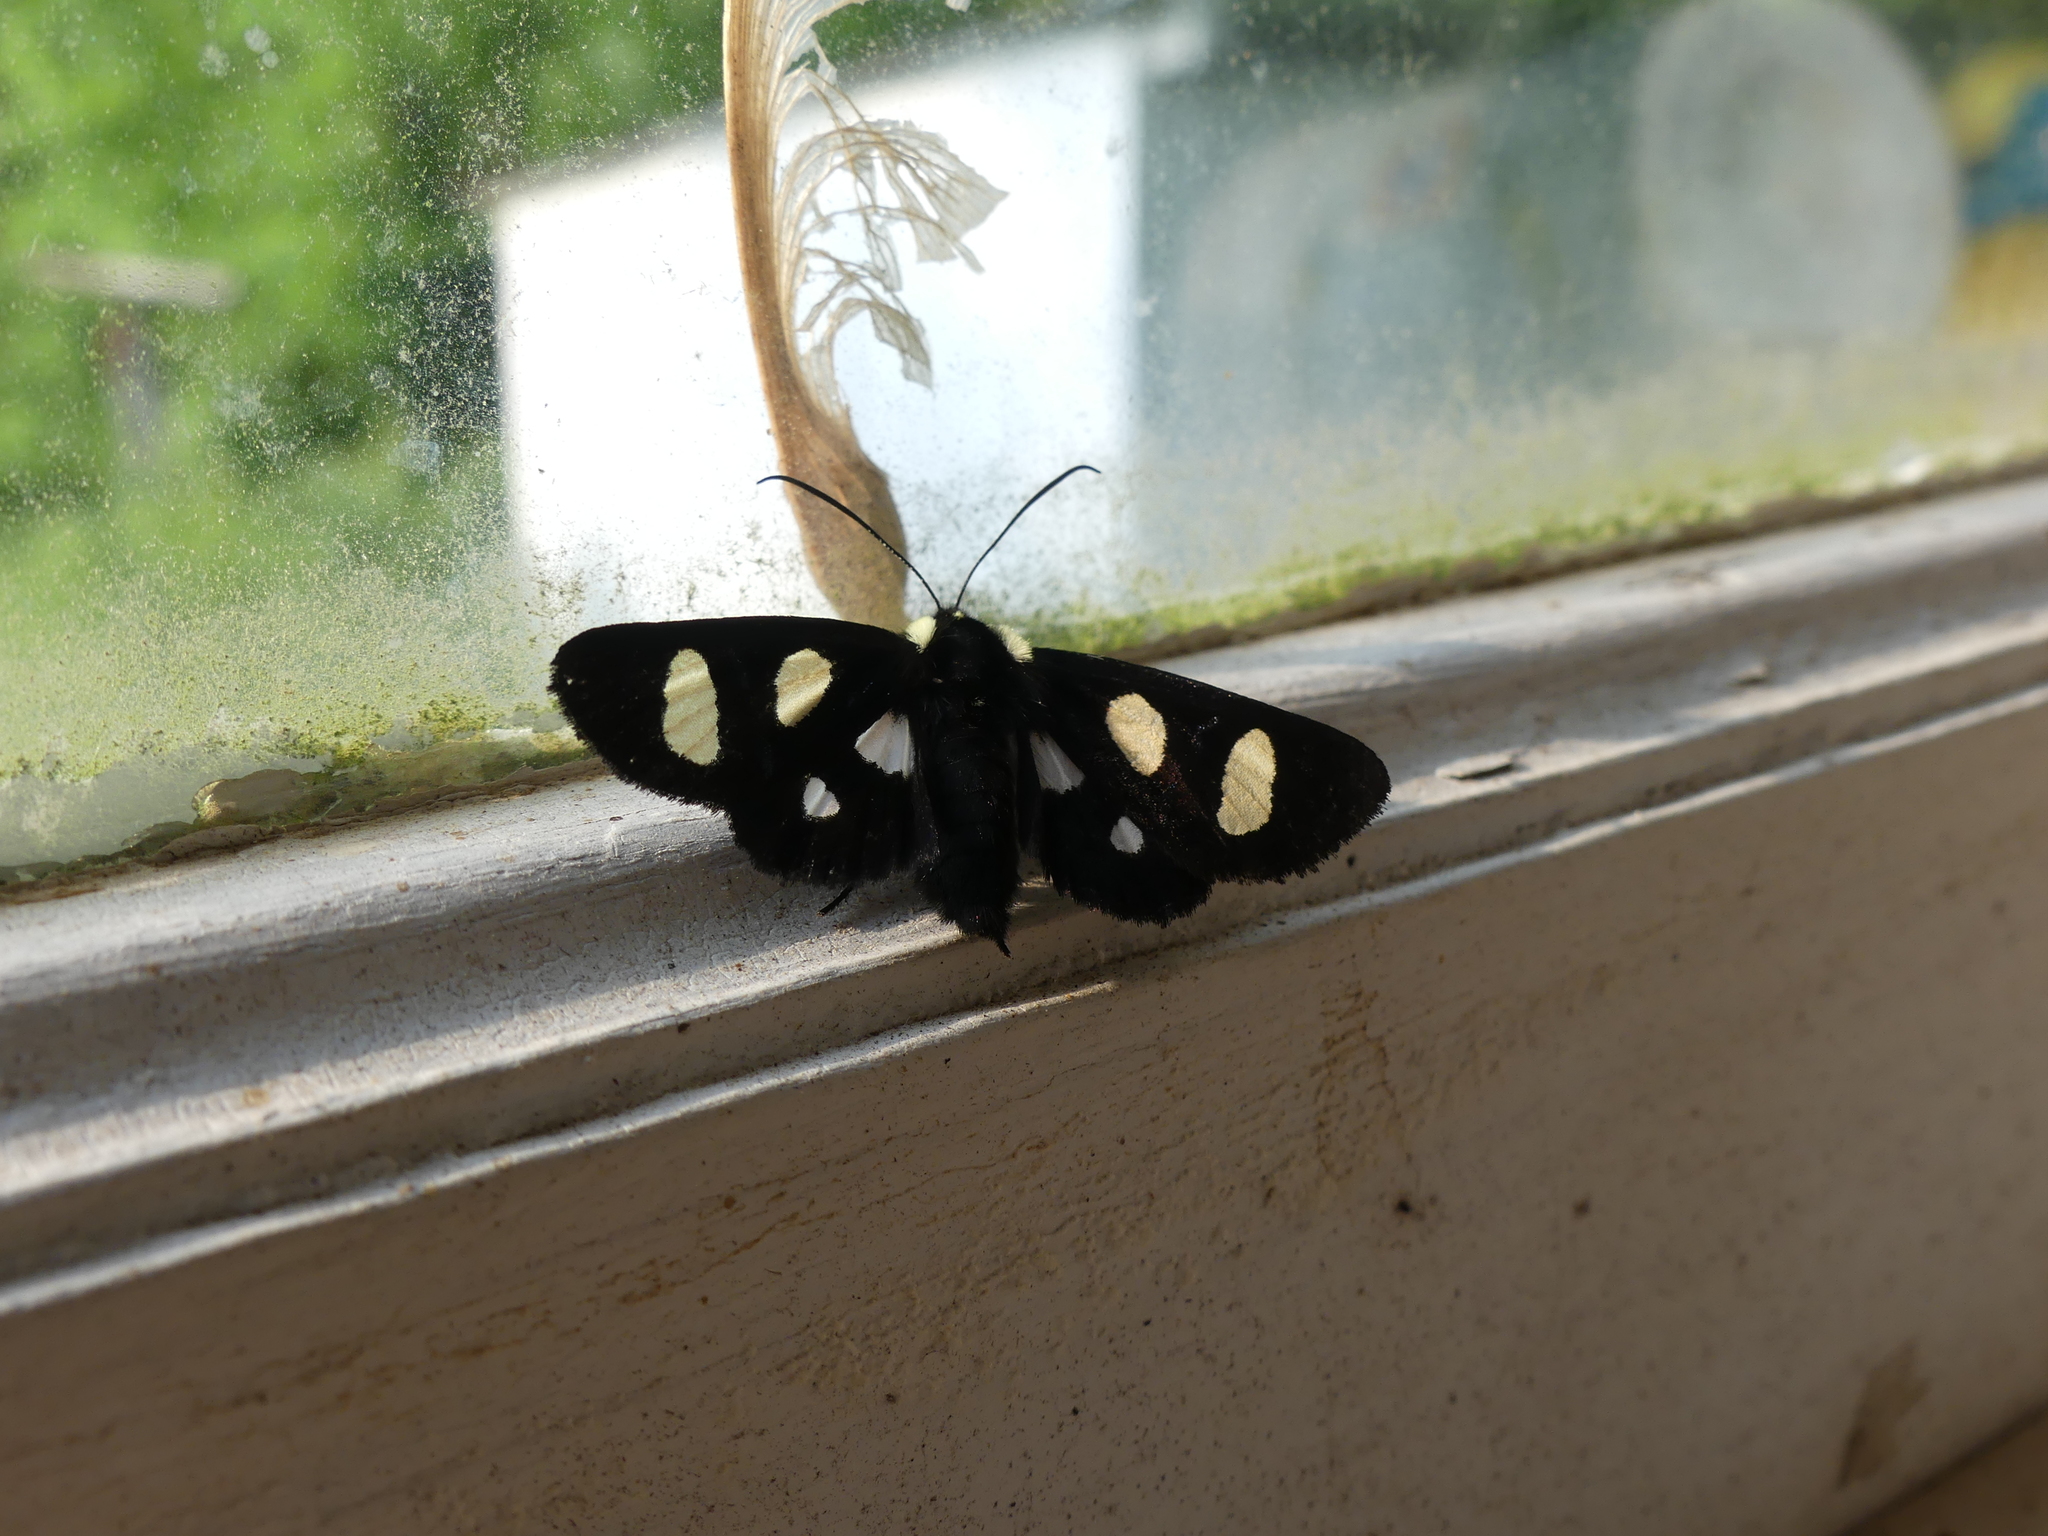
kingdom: Animalia
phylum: Arthropoda
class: Insecta
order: Lepidoptera
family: Noctuidae
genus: Alypia
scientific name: Alypia octomaculata
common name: Eight-spotted forester
